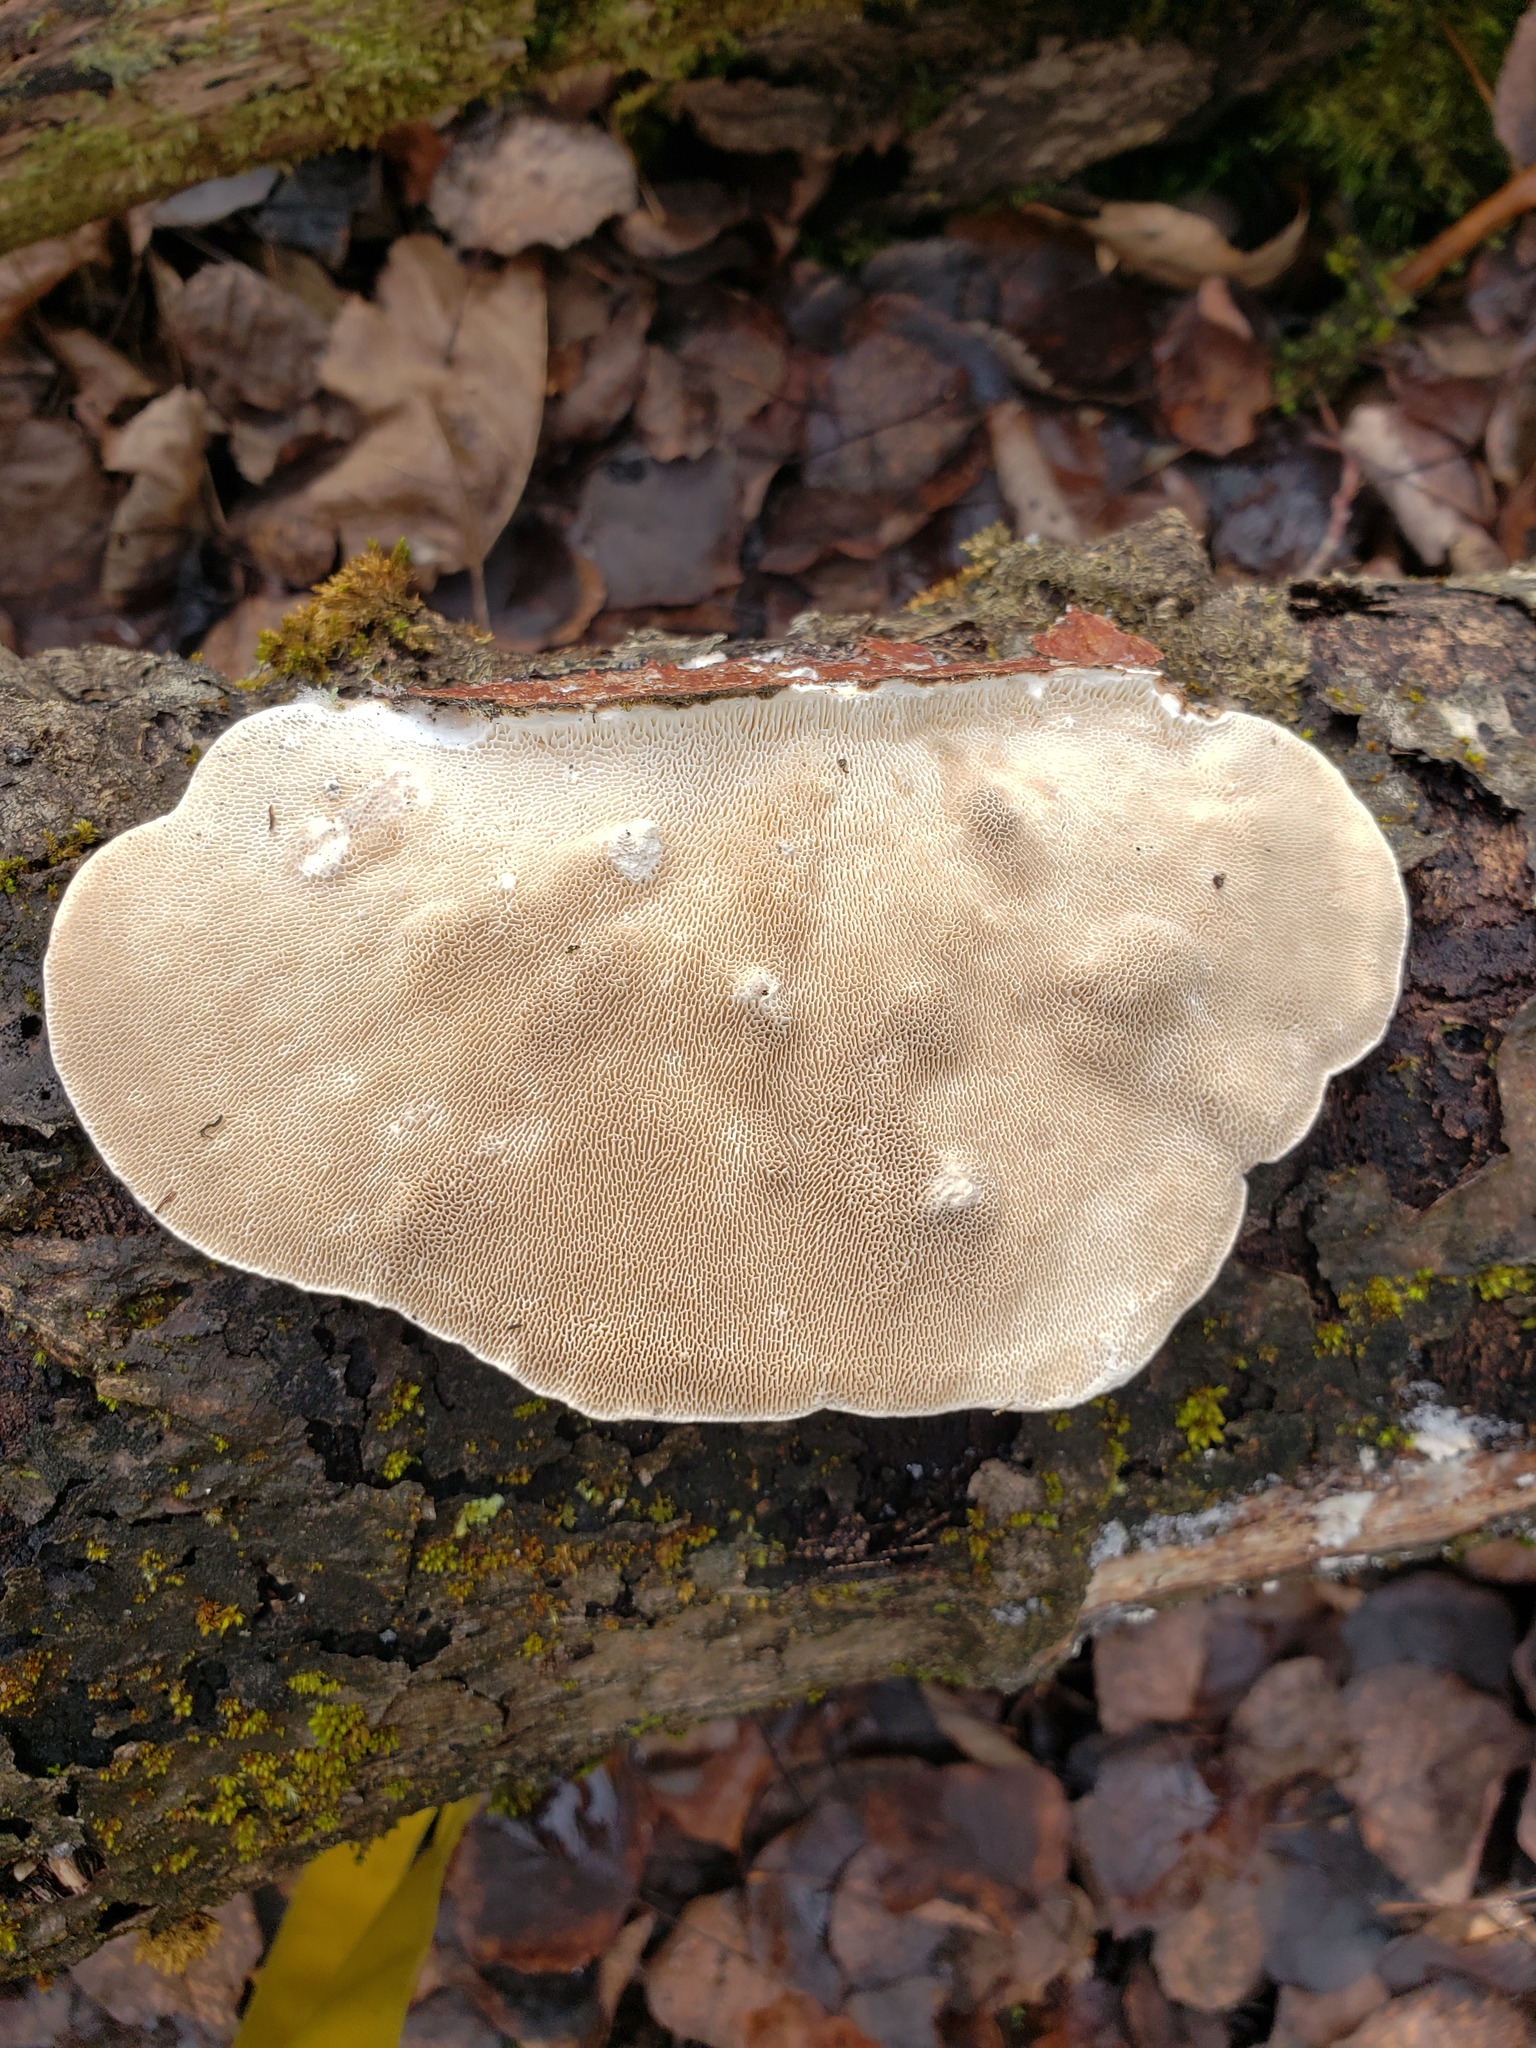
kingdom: Fungi
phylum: Basidiomycota
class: Agaricomycetes
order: Polyporales
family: Polyporaceae
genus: Trametes
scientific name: Trametes gibbosa
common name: Lumpy bracket
